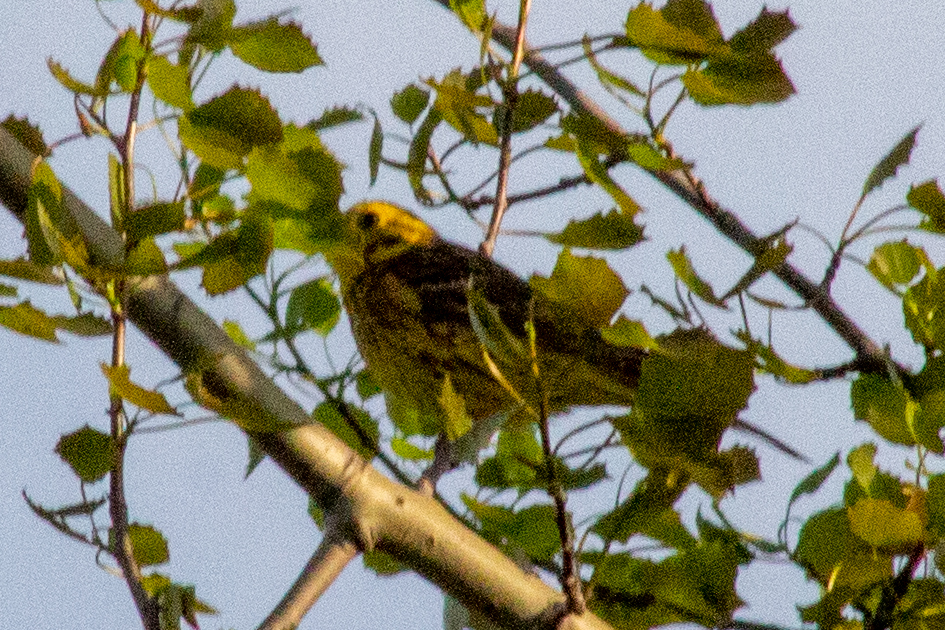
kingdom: Animalia
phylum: Chordata
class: Aves
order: Passeriformes
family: Emberizidae
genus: Emberiza
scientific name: Emberiza citrinella
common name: Yellowhammer
